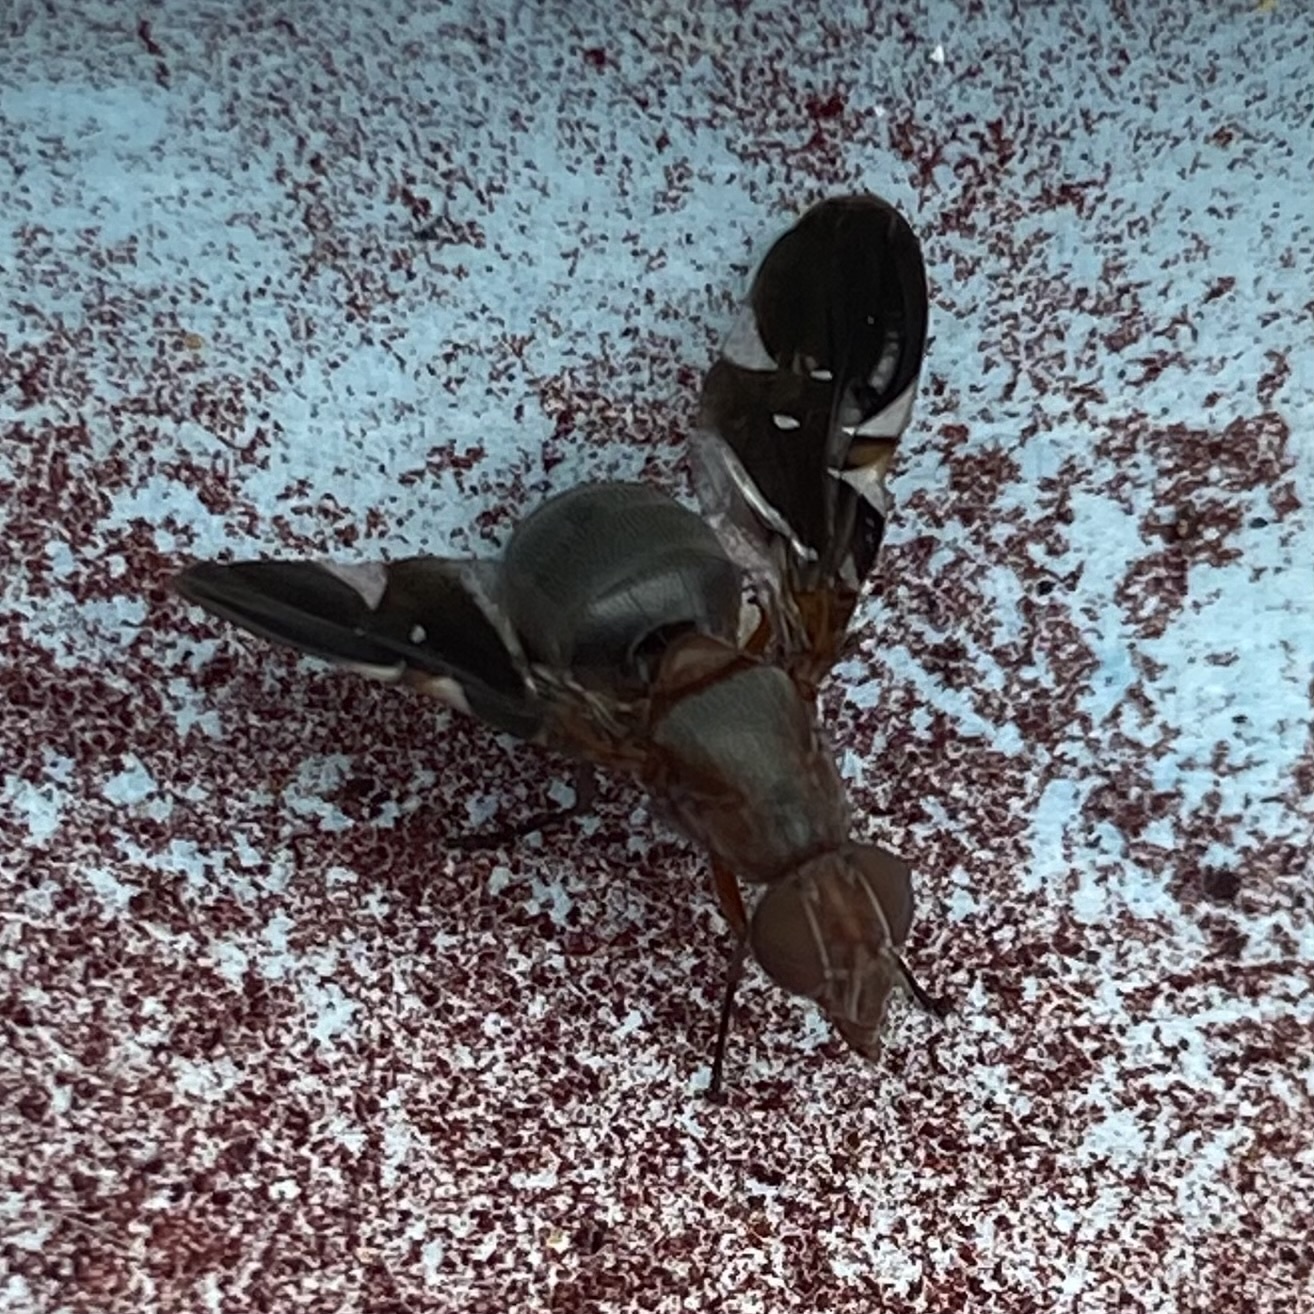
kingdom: Animalia
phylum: Arthropoda
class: Insecta
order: Diptera
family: Ulidiidae
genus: Delphinia
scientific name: Delphinia picta
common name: Common picture-winged fly
